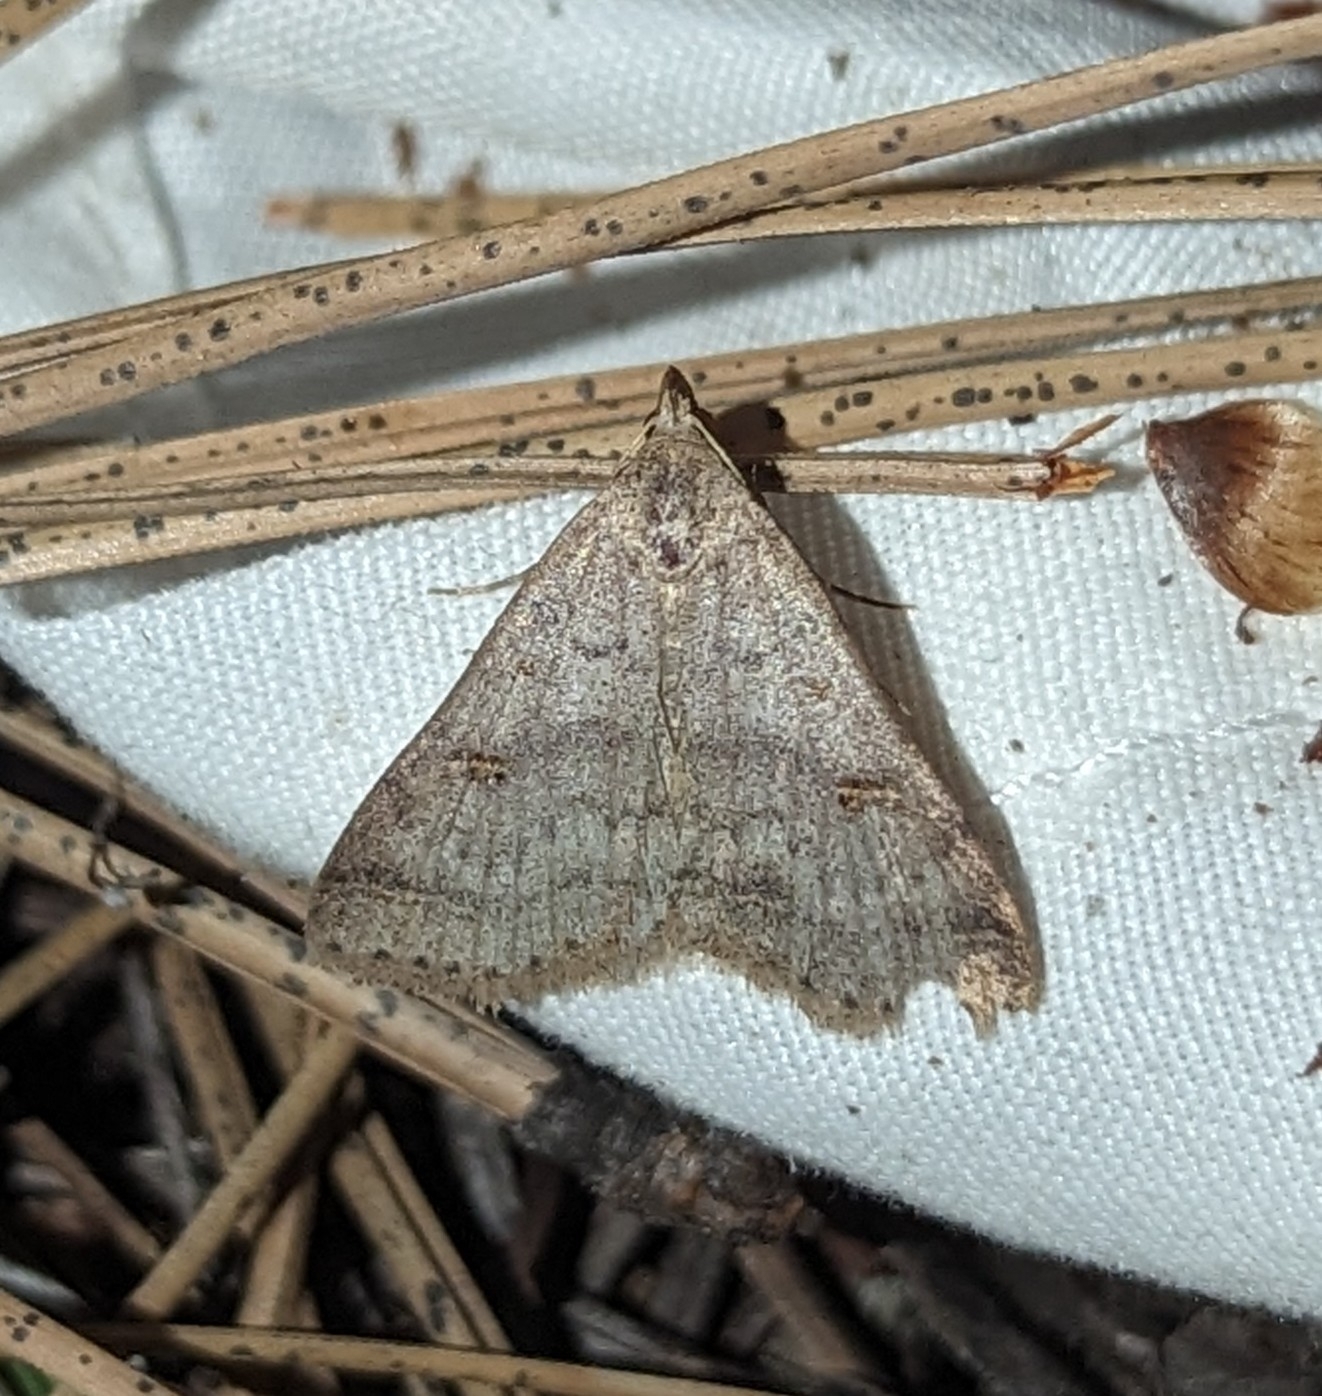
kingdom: Animalia
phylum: Arthropoda
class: Insecta
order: Lepidoptera
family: Erebidae
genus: Bleptina
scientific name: Bleptina caradrinalis
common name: Bent-winged owlet
